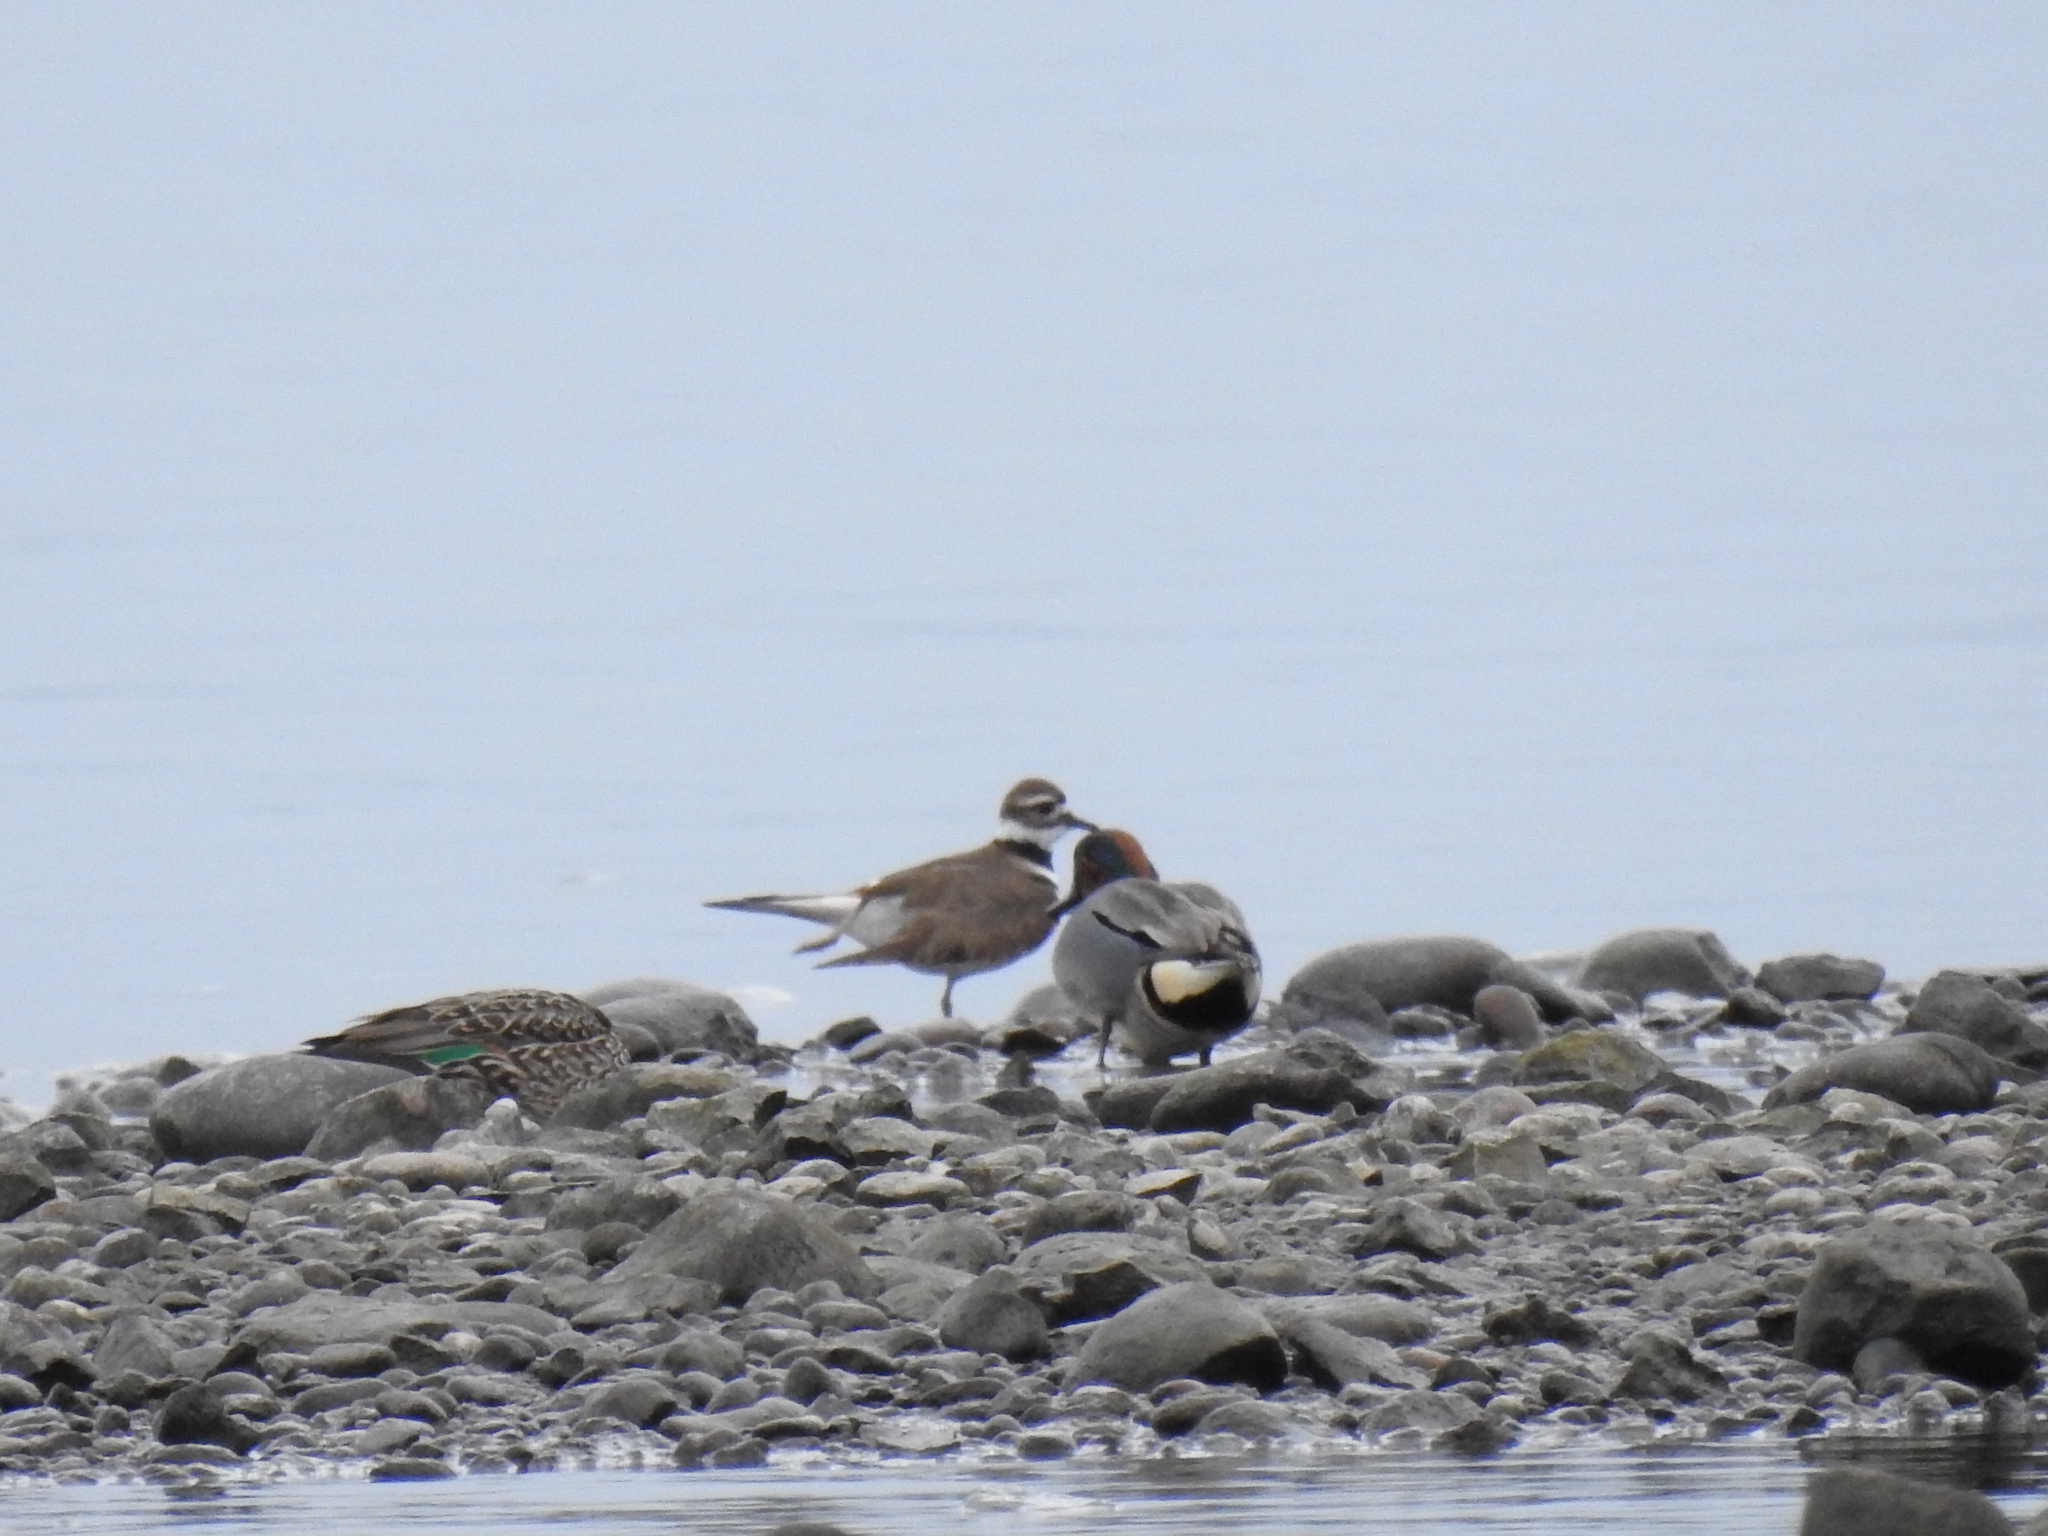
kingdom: Animalia
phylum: Chordata
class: Aves
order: Charadriiformes
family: Charadriidae
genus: Charadrius
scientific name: Charadrius vociferus
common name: Killdeer
